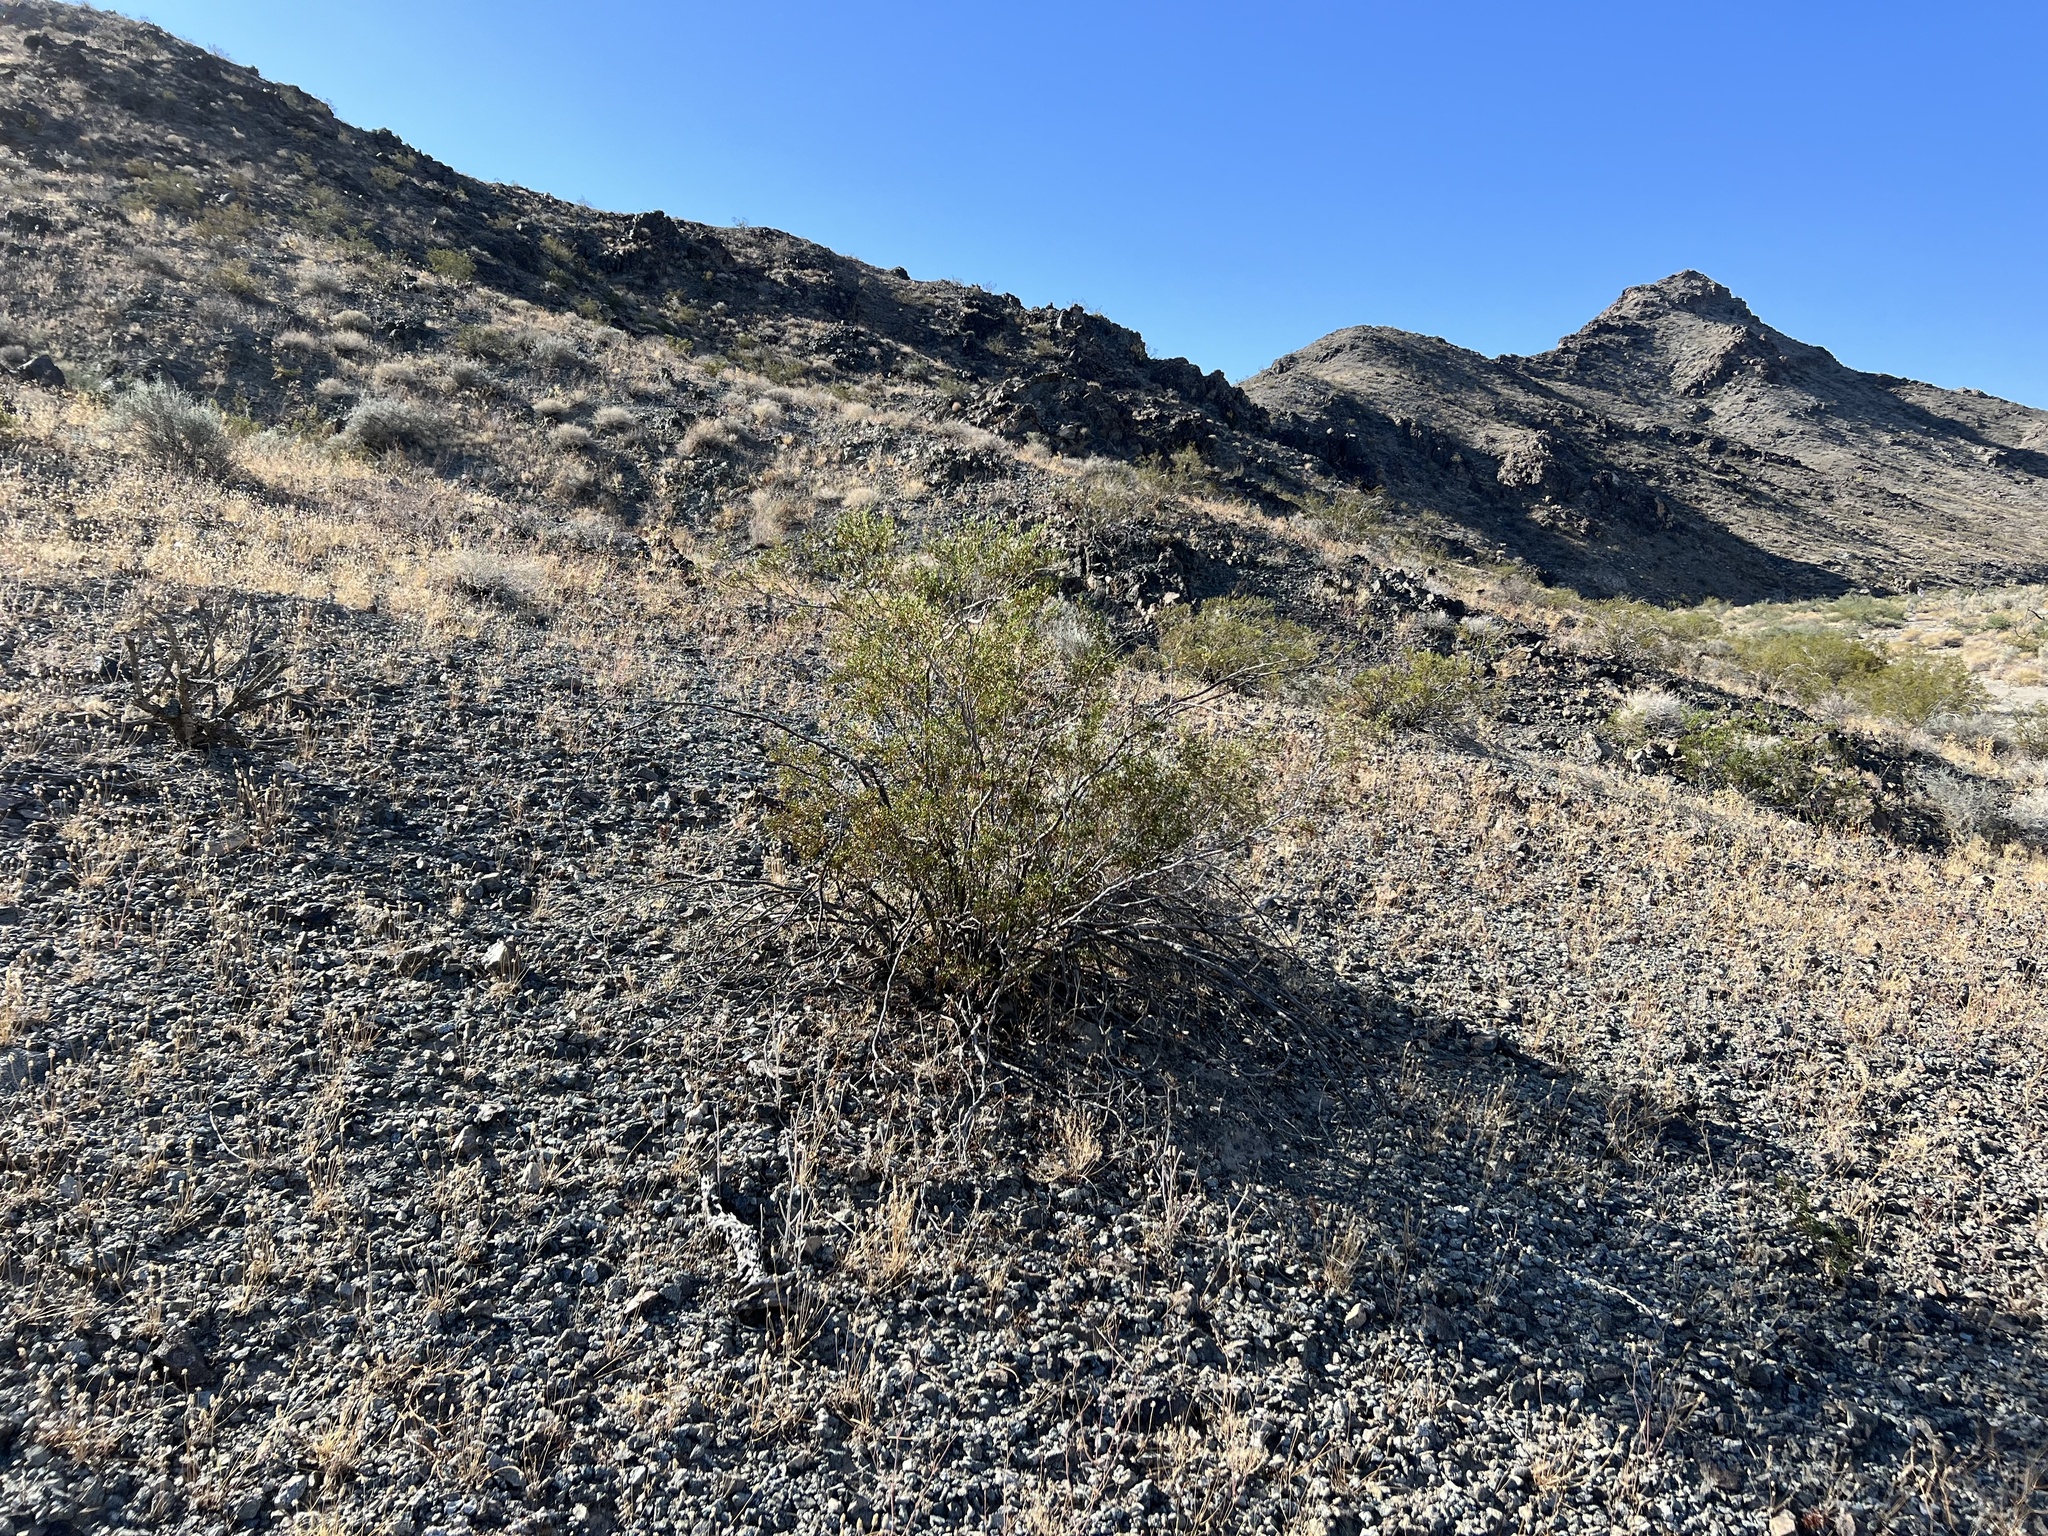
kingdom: Plantae
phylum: Tracheophyta
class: Magnoliopsida
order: Zygophyllales
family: Zygophyllaceae
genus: Larrea
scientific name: Larrea tridentata
